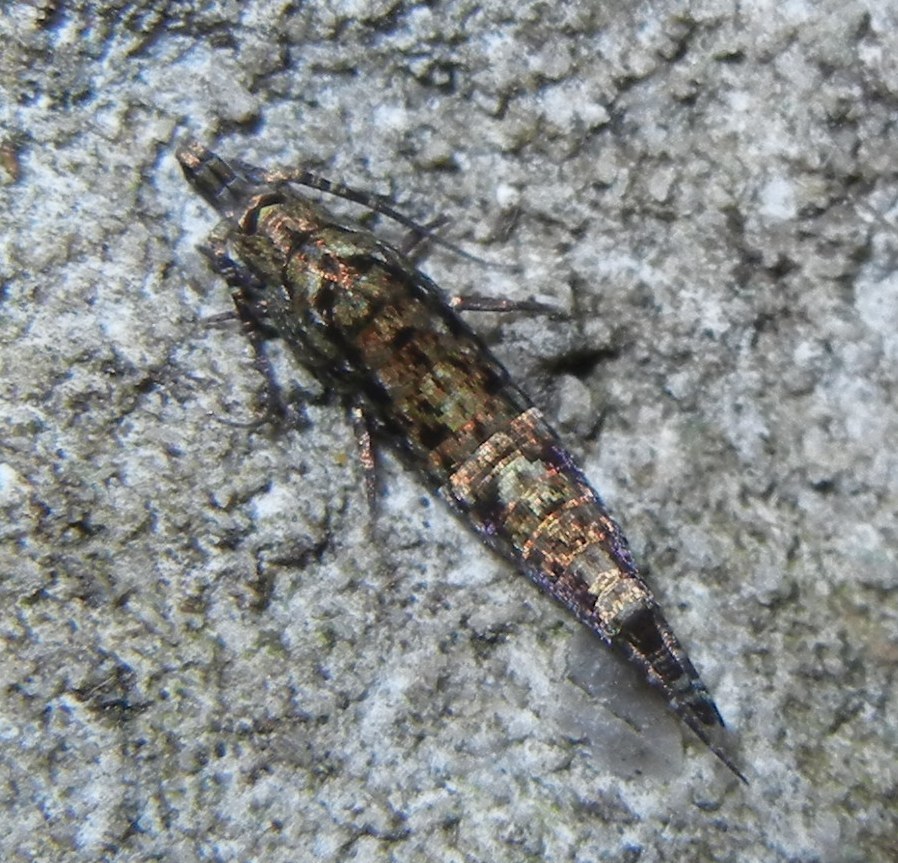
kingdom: Animalia
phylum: Arthropoda
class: Insecta
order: Archaeognatha
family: Machilidae
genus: Dilta
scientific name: Dilta hibernica
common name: Southern bristletail
